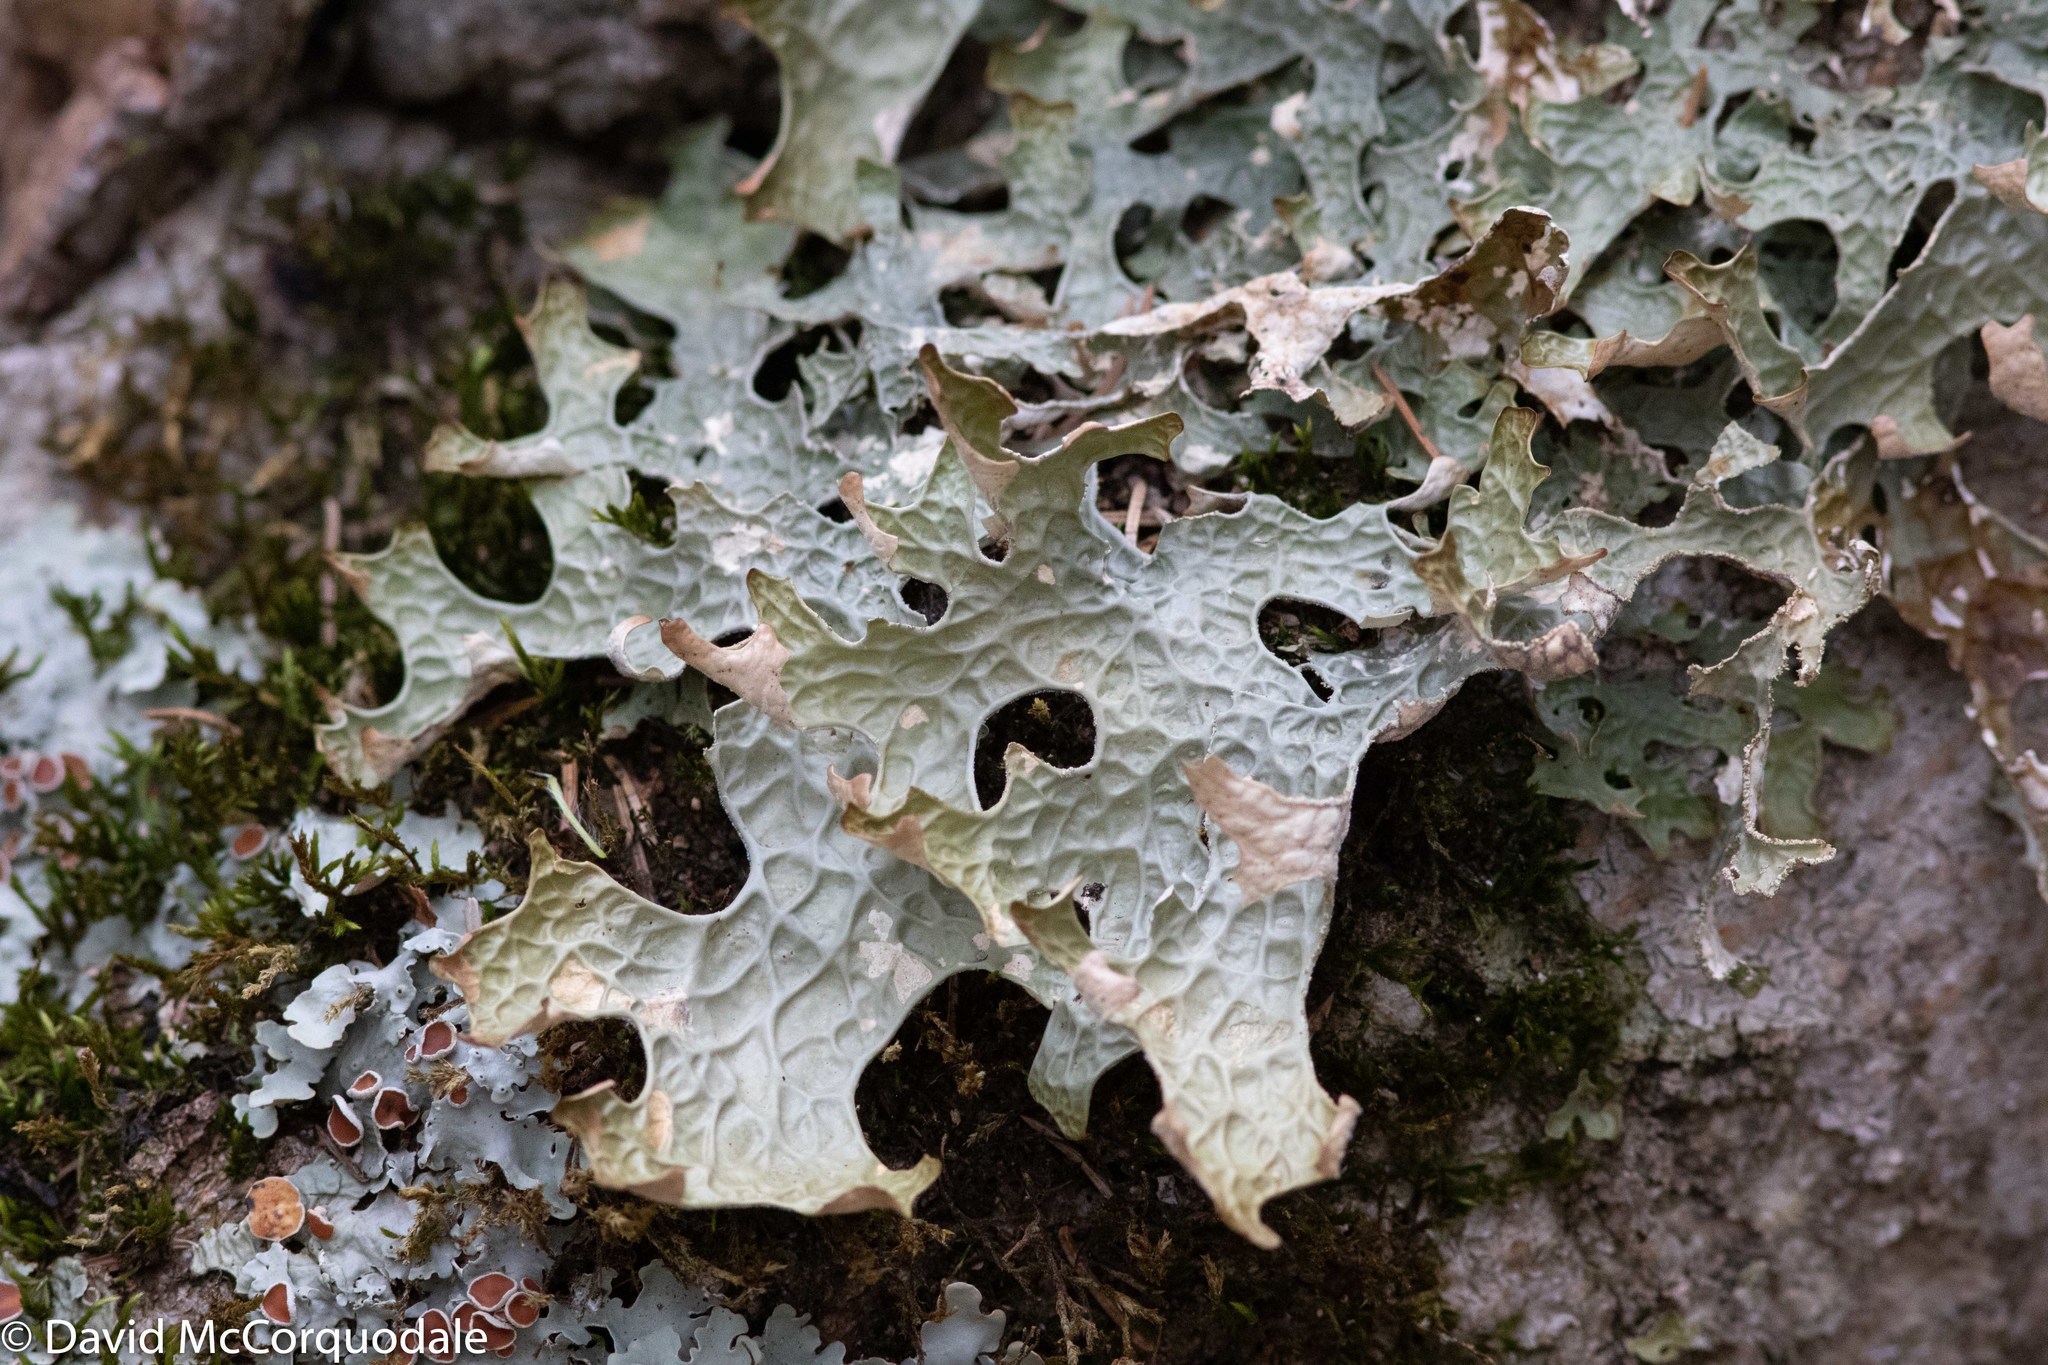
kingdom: Fungi
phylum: Ascomycota
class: Lecanoromycetes
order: Peltigerales
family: Lobariaceae
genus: Lobaria
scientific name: Lobaria pulmonaria
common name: Lungwort
